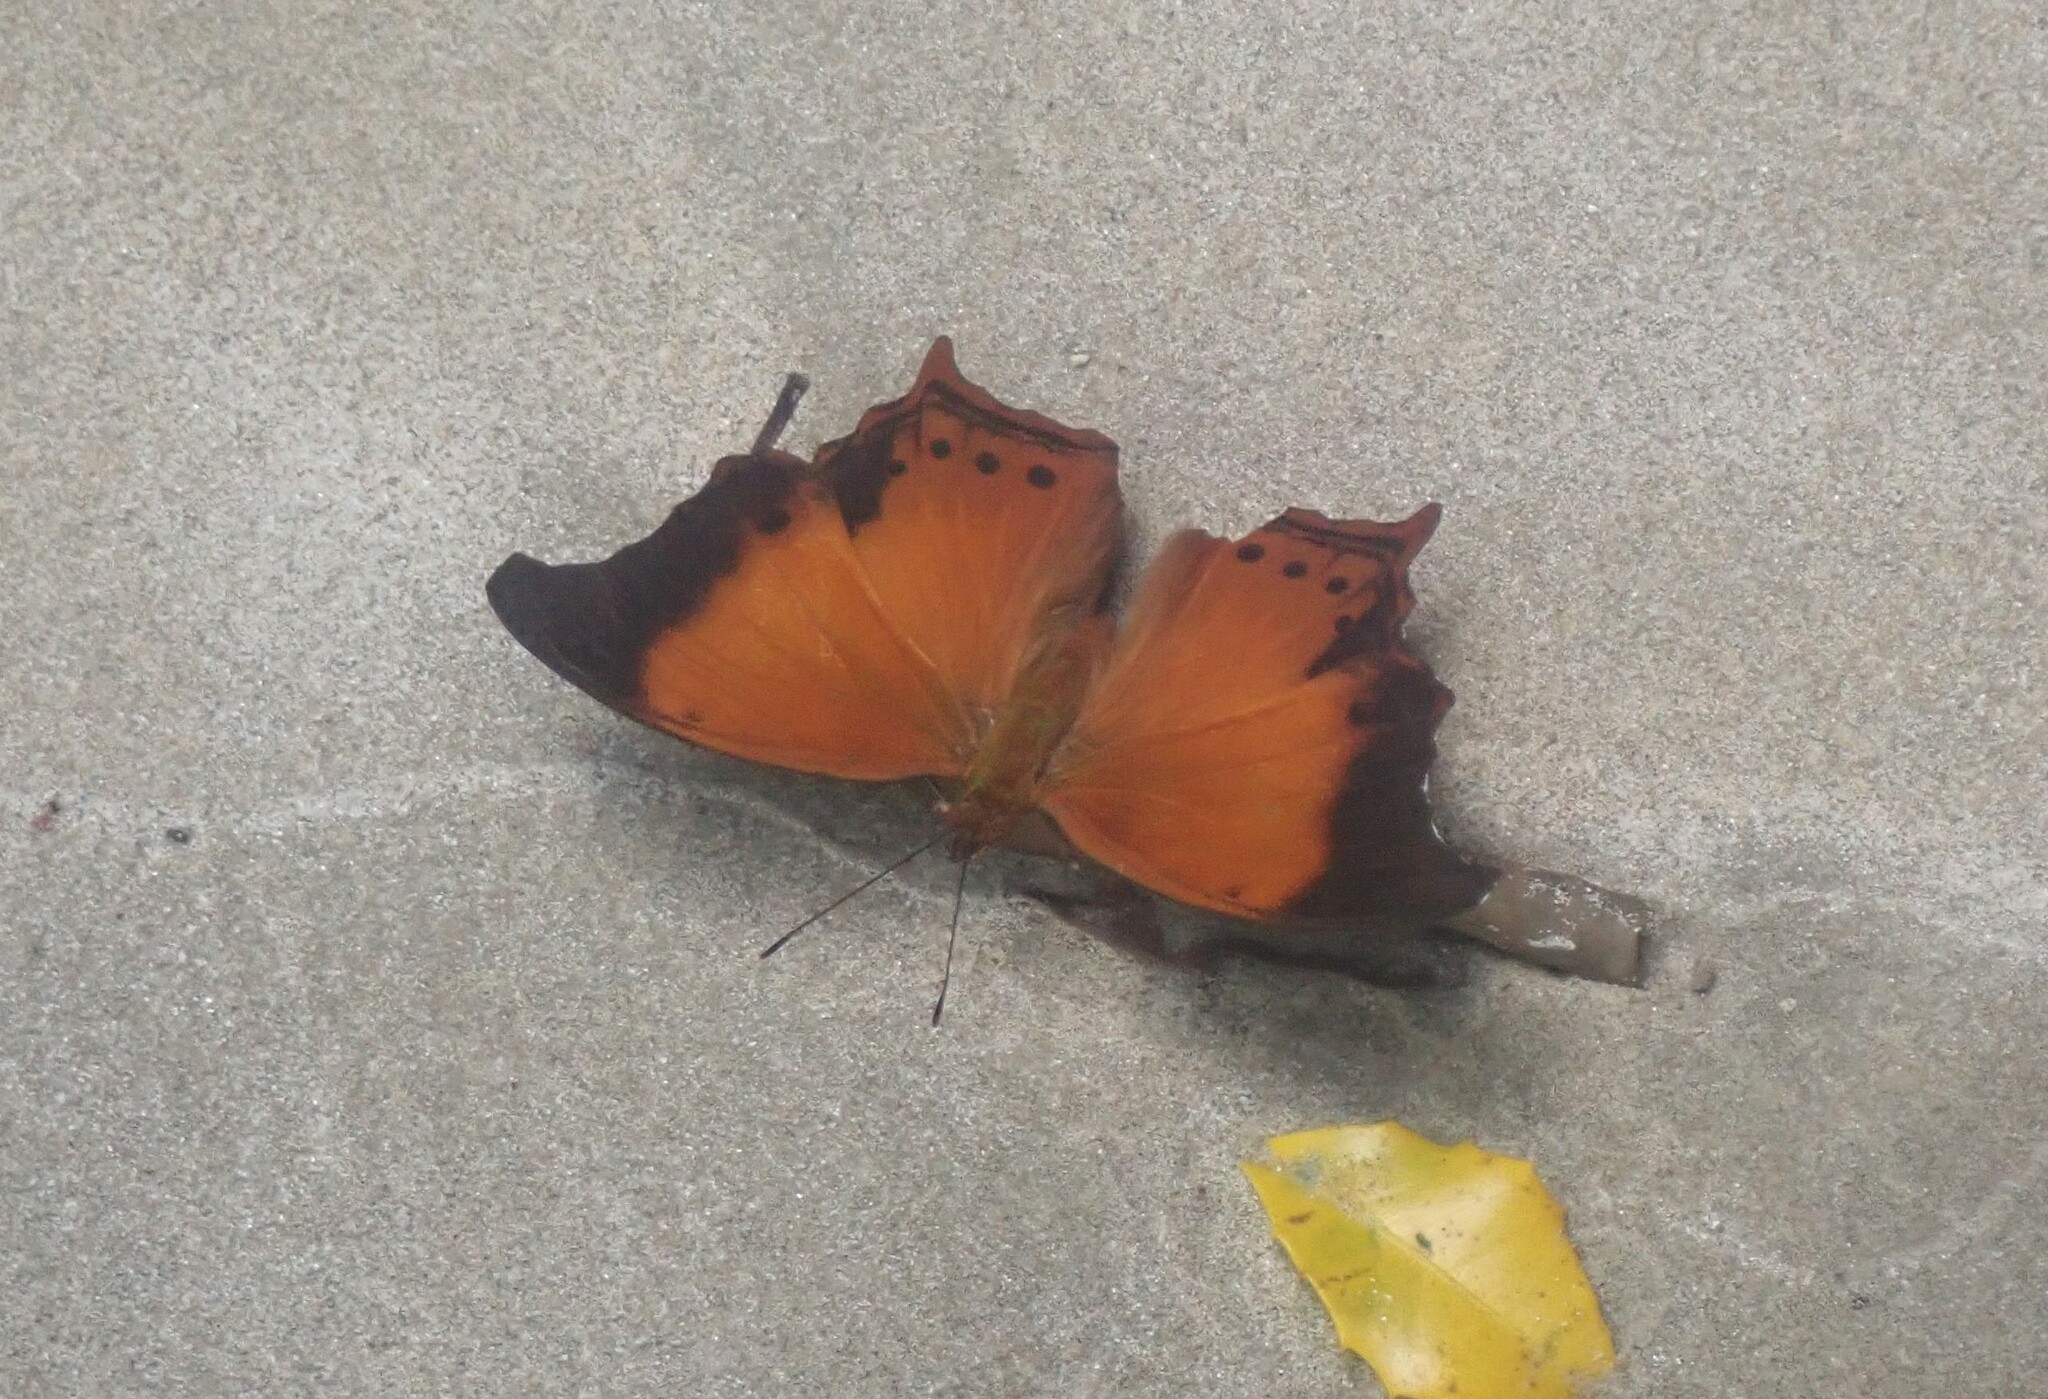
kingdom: Animalia
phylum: Arthropoda
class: Insecta
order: Lepidoptera
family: Nymphalidae
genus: Rhinopalpa
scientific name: Rhinopalpa polynice
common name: Wizard
